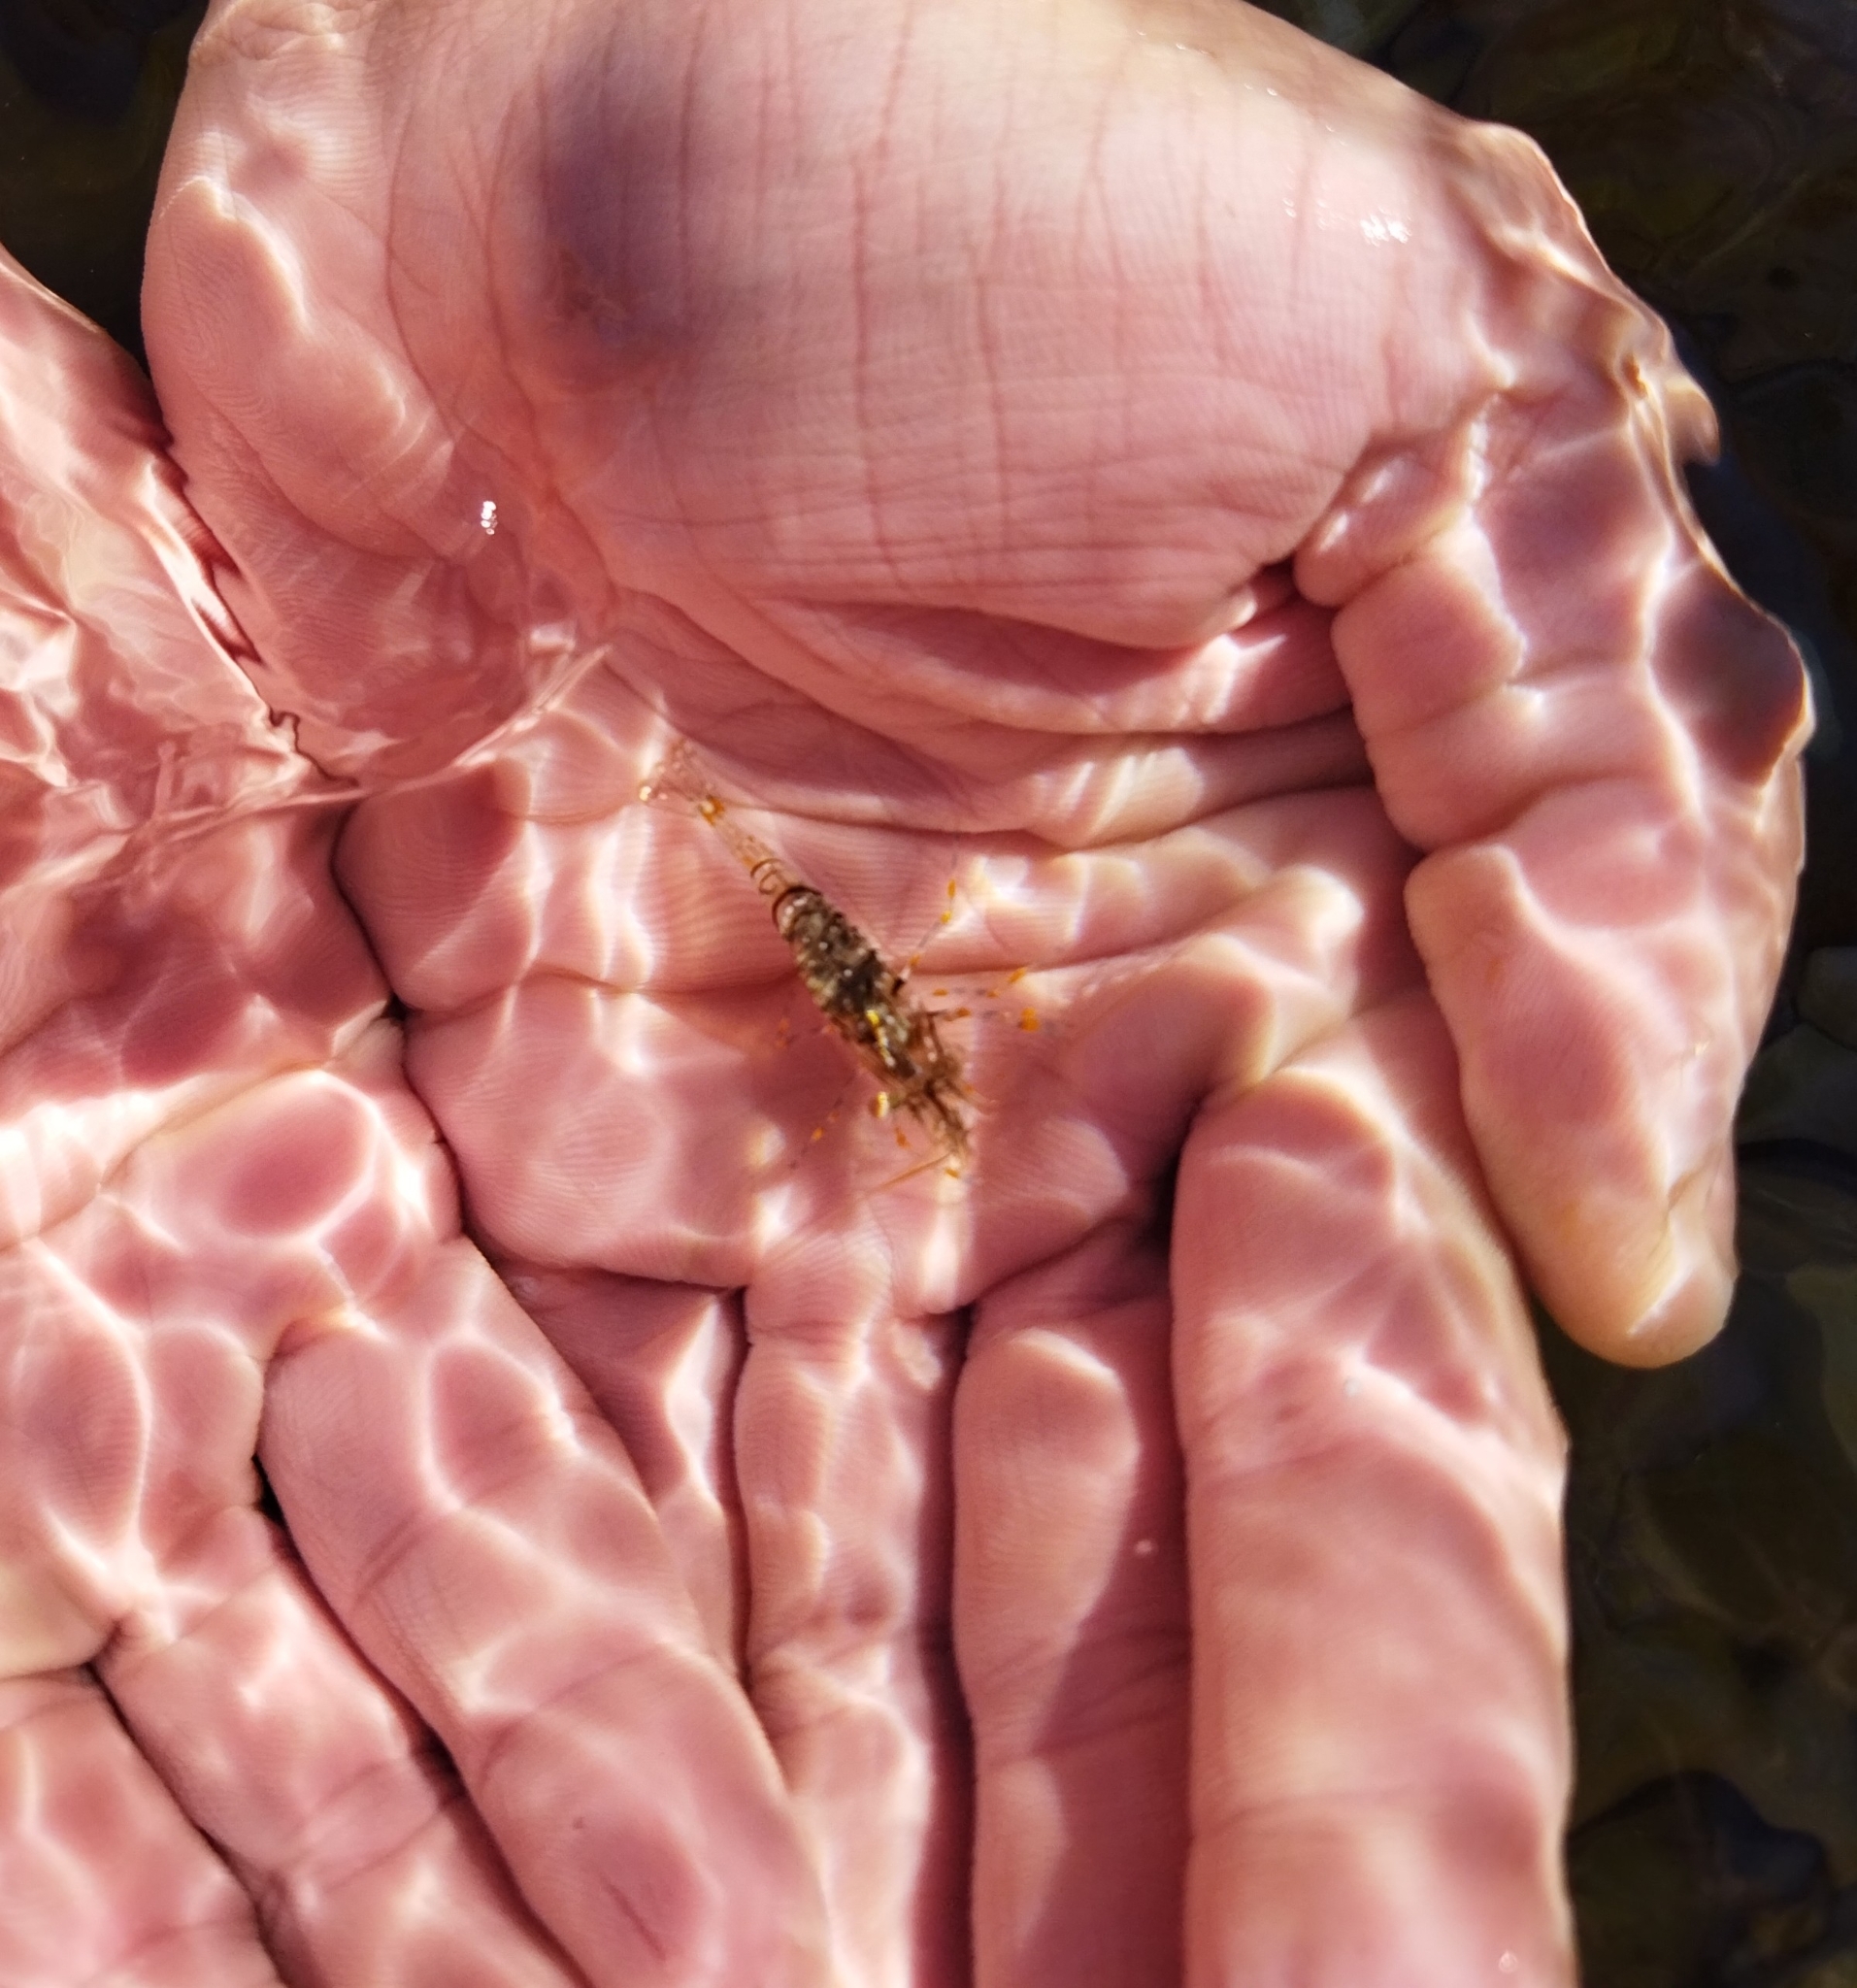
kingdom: Animalia
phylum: Arthropoda
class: Malacostraca
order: Decapoda
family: Palaemonidae
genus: Palaemon
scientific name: Palaemon elegans
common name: Grass prawm
